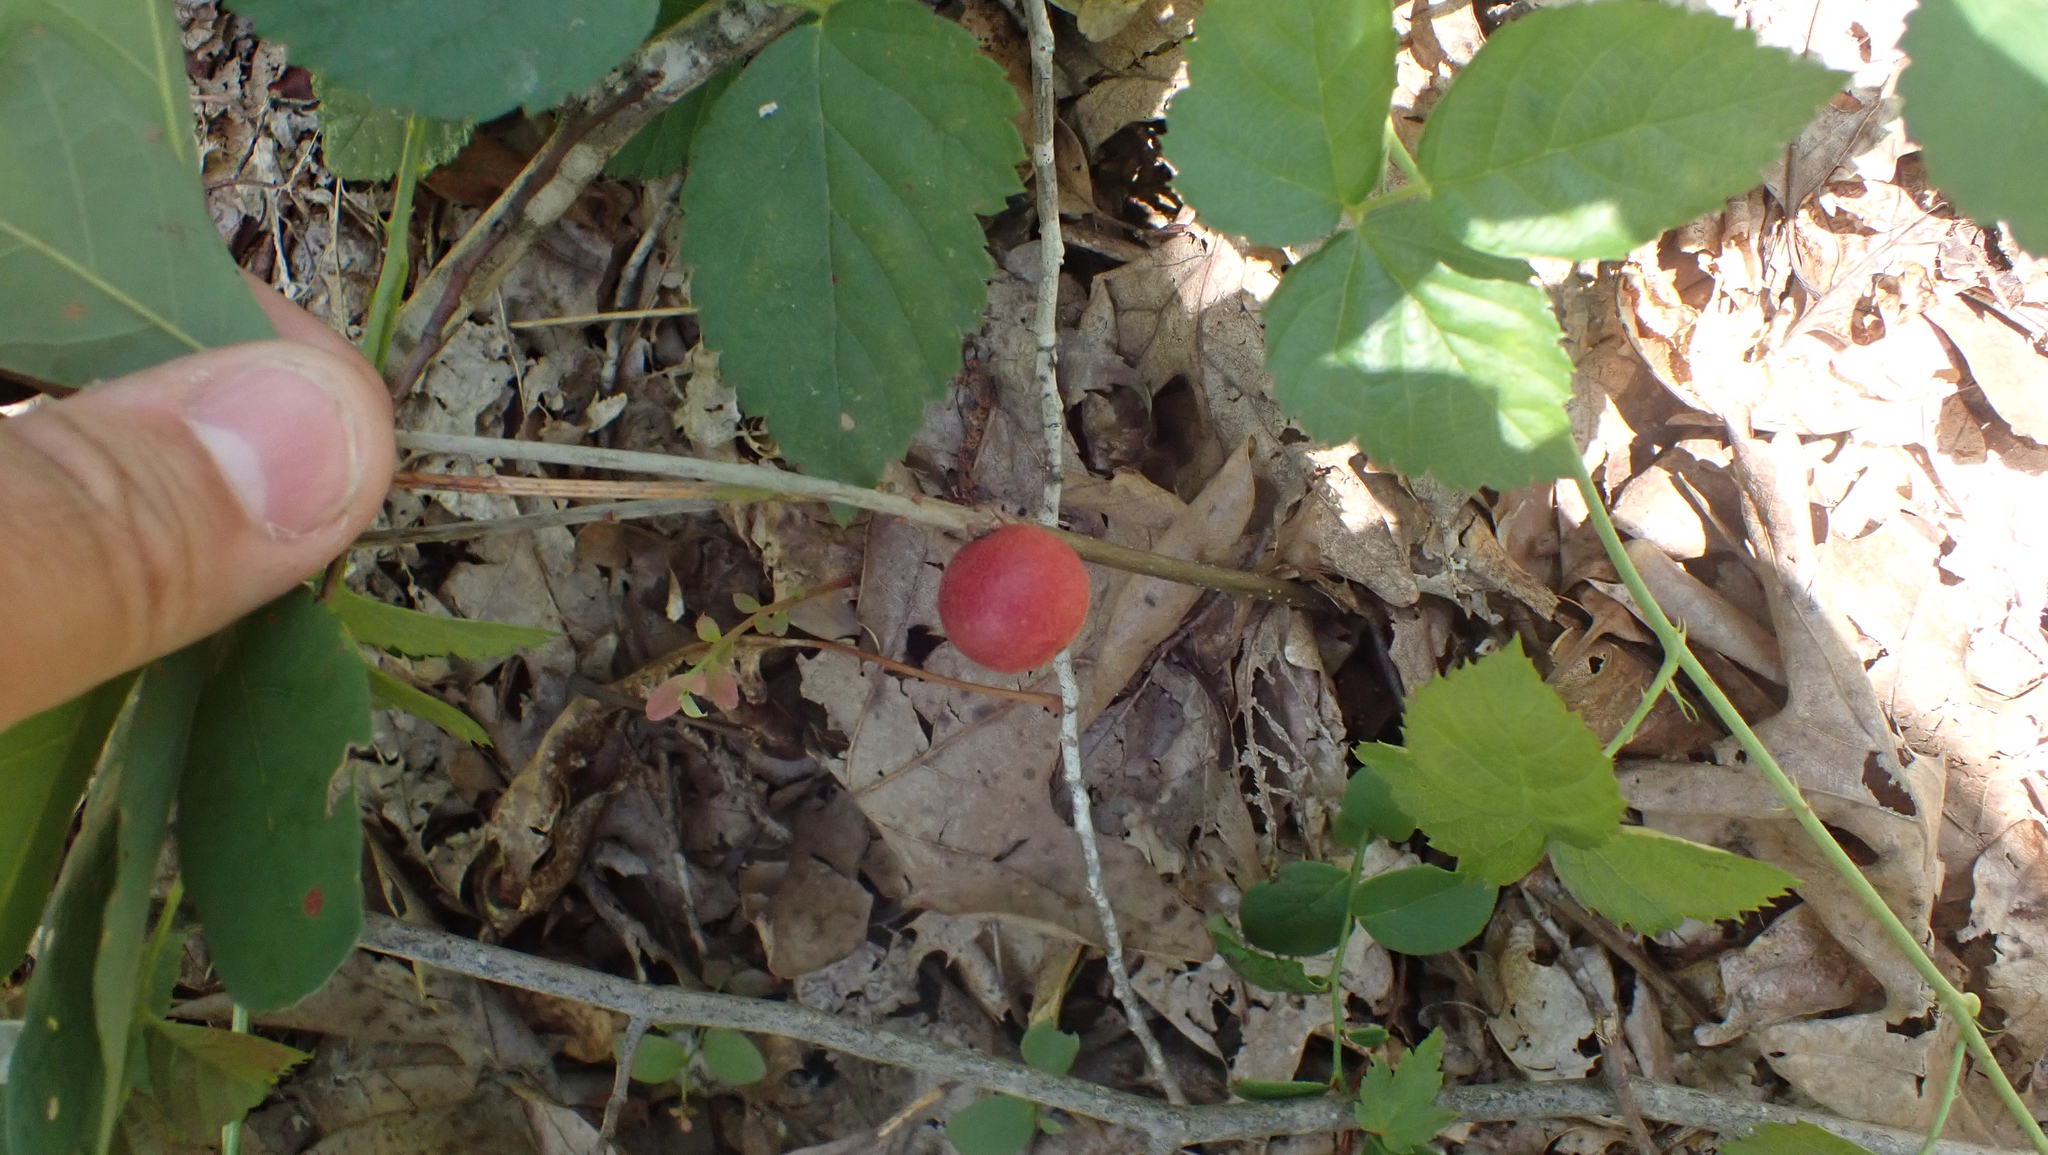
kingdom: Animalia
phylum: Arthropoda
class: Insecta
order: Hymenoptera
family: Cynipidae
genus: Disholcaspis
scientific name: Disholcaspis quercusglobulus
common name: Round bullet gall wasp
